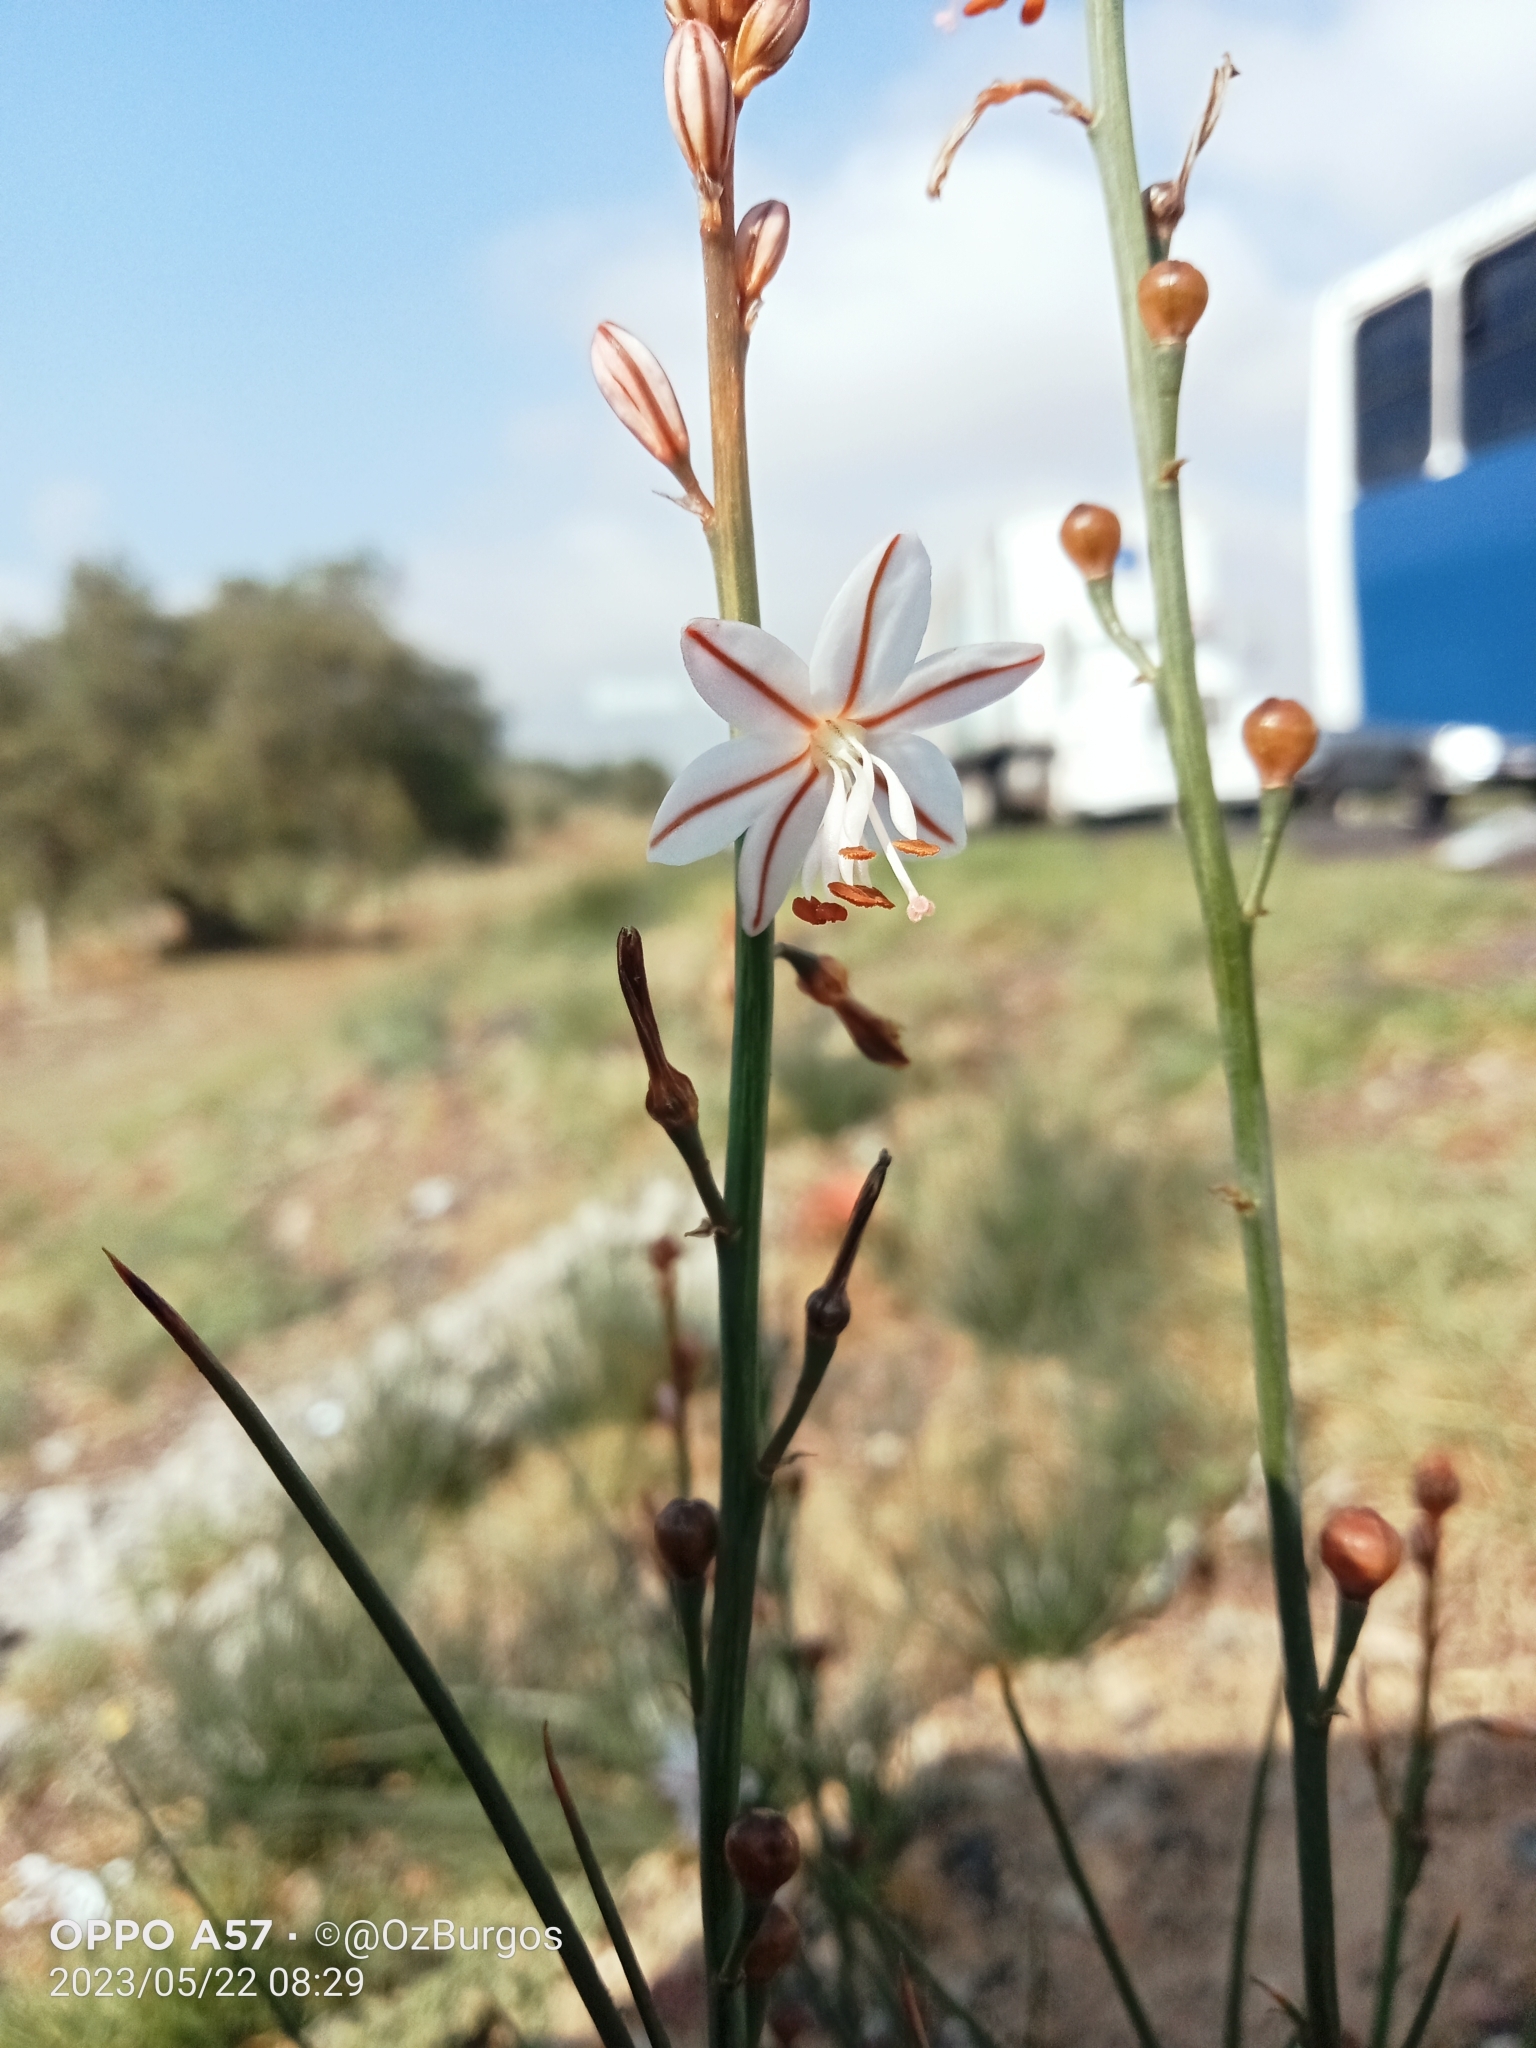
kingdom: Plantae
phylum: Tracheophyta
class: Liliopsida
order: Asparagales
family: Asphodelaceae
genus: Asphodelus
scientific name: Asphodelus fistulosus
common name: Onionweed
